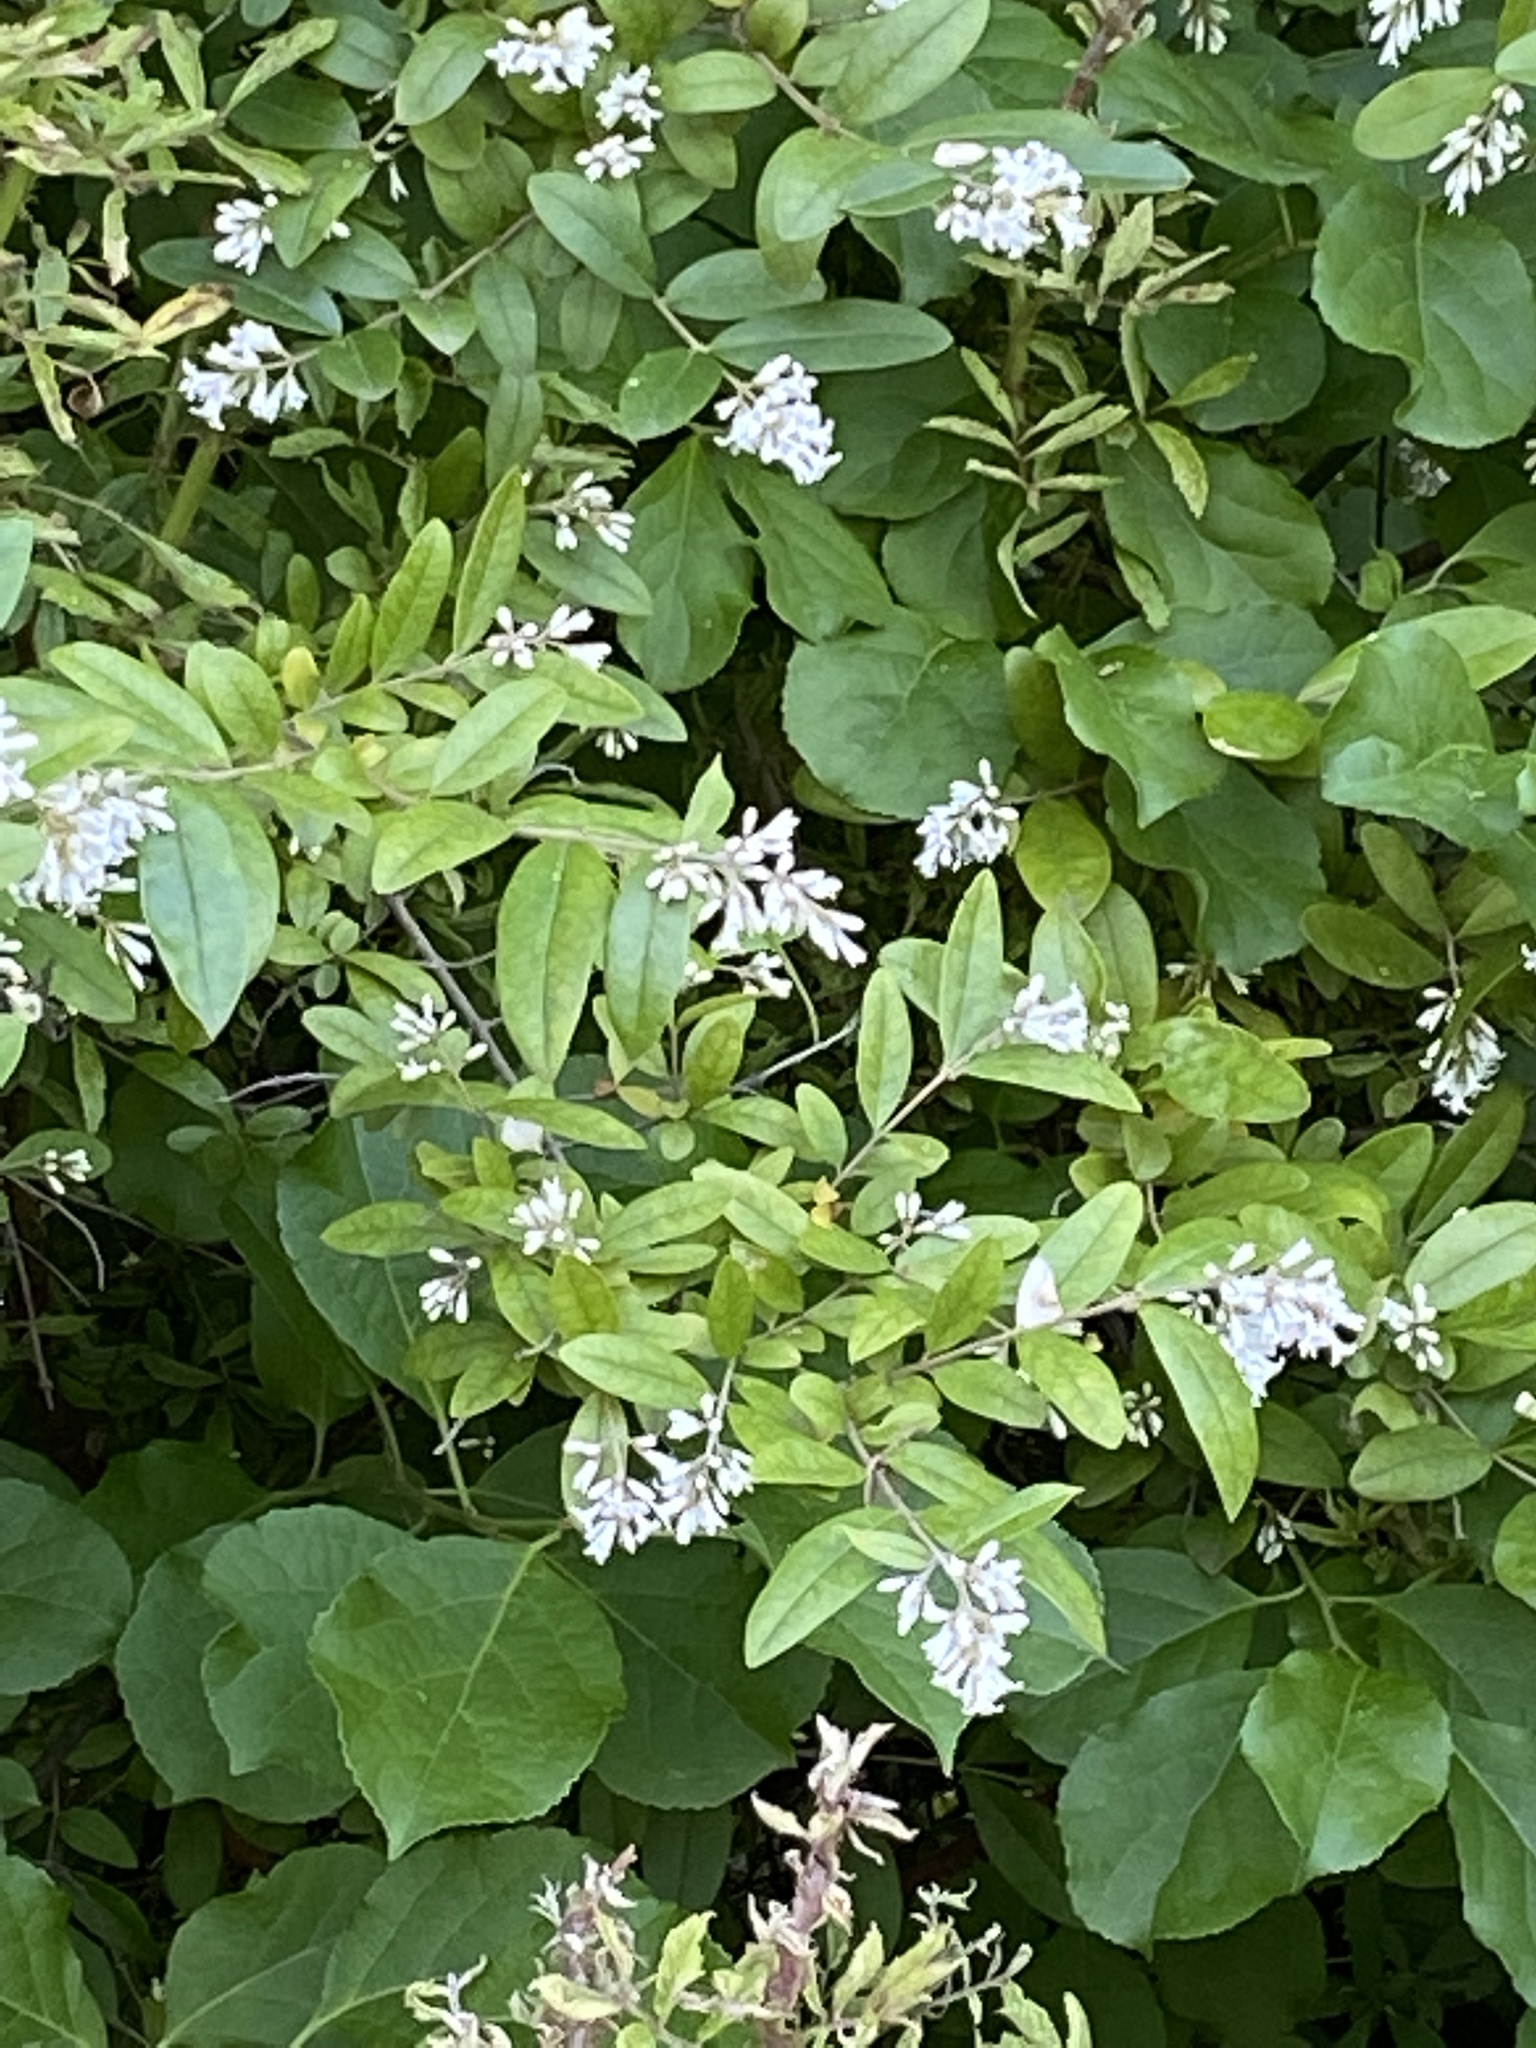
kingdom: Plantae
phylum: Tracheophyta
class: Magnoliopsida
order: Lamiales
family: Oleaceae
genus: Ligustrum
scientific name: Ligustrum
